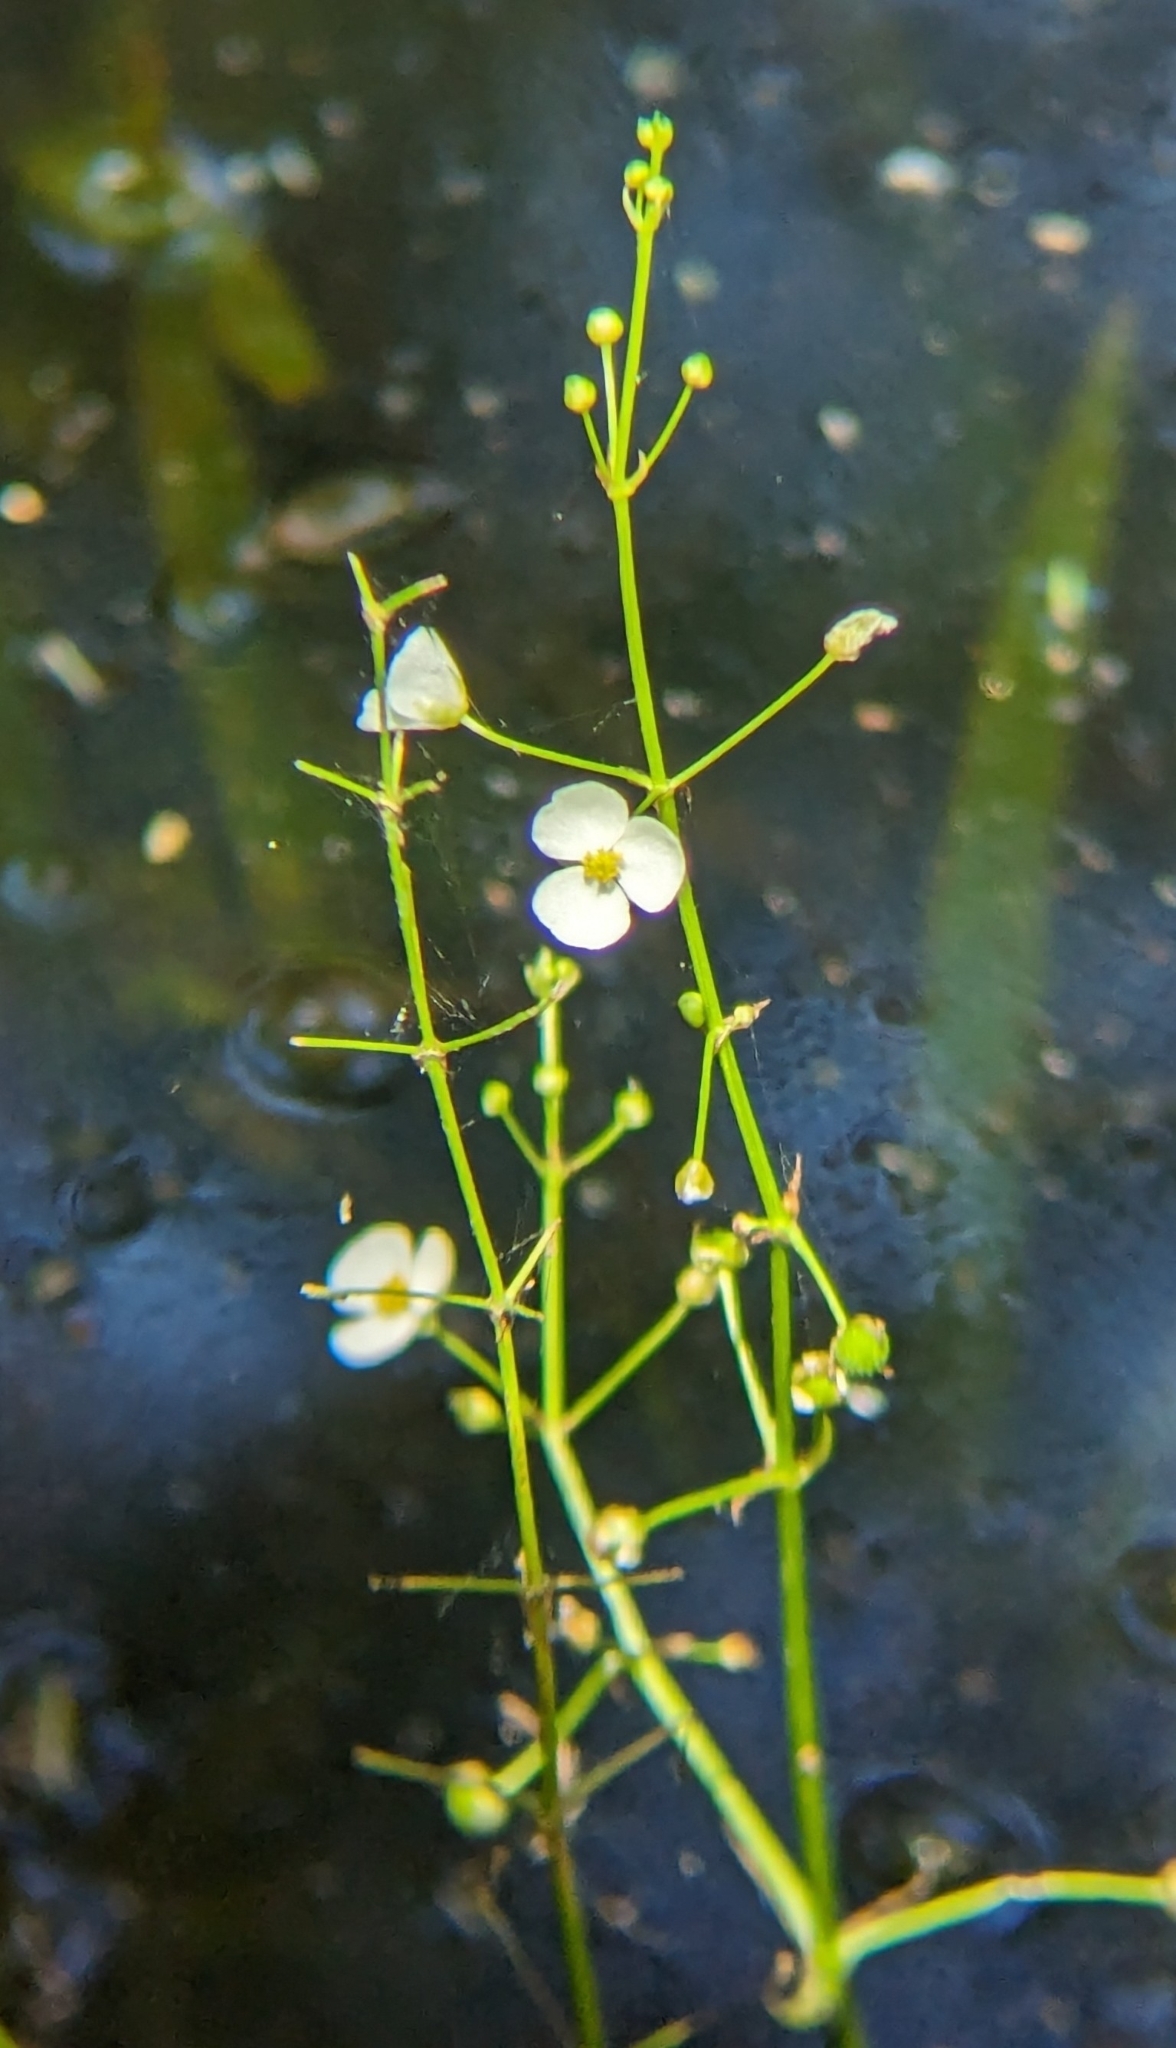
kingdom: Plantae
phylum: Tracheophyta
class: Liliopsida
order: Alismatales
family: Alismataceae
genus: Sagittaria
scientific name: Sagittaria chapmanii
